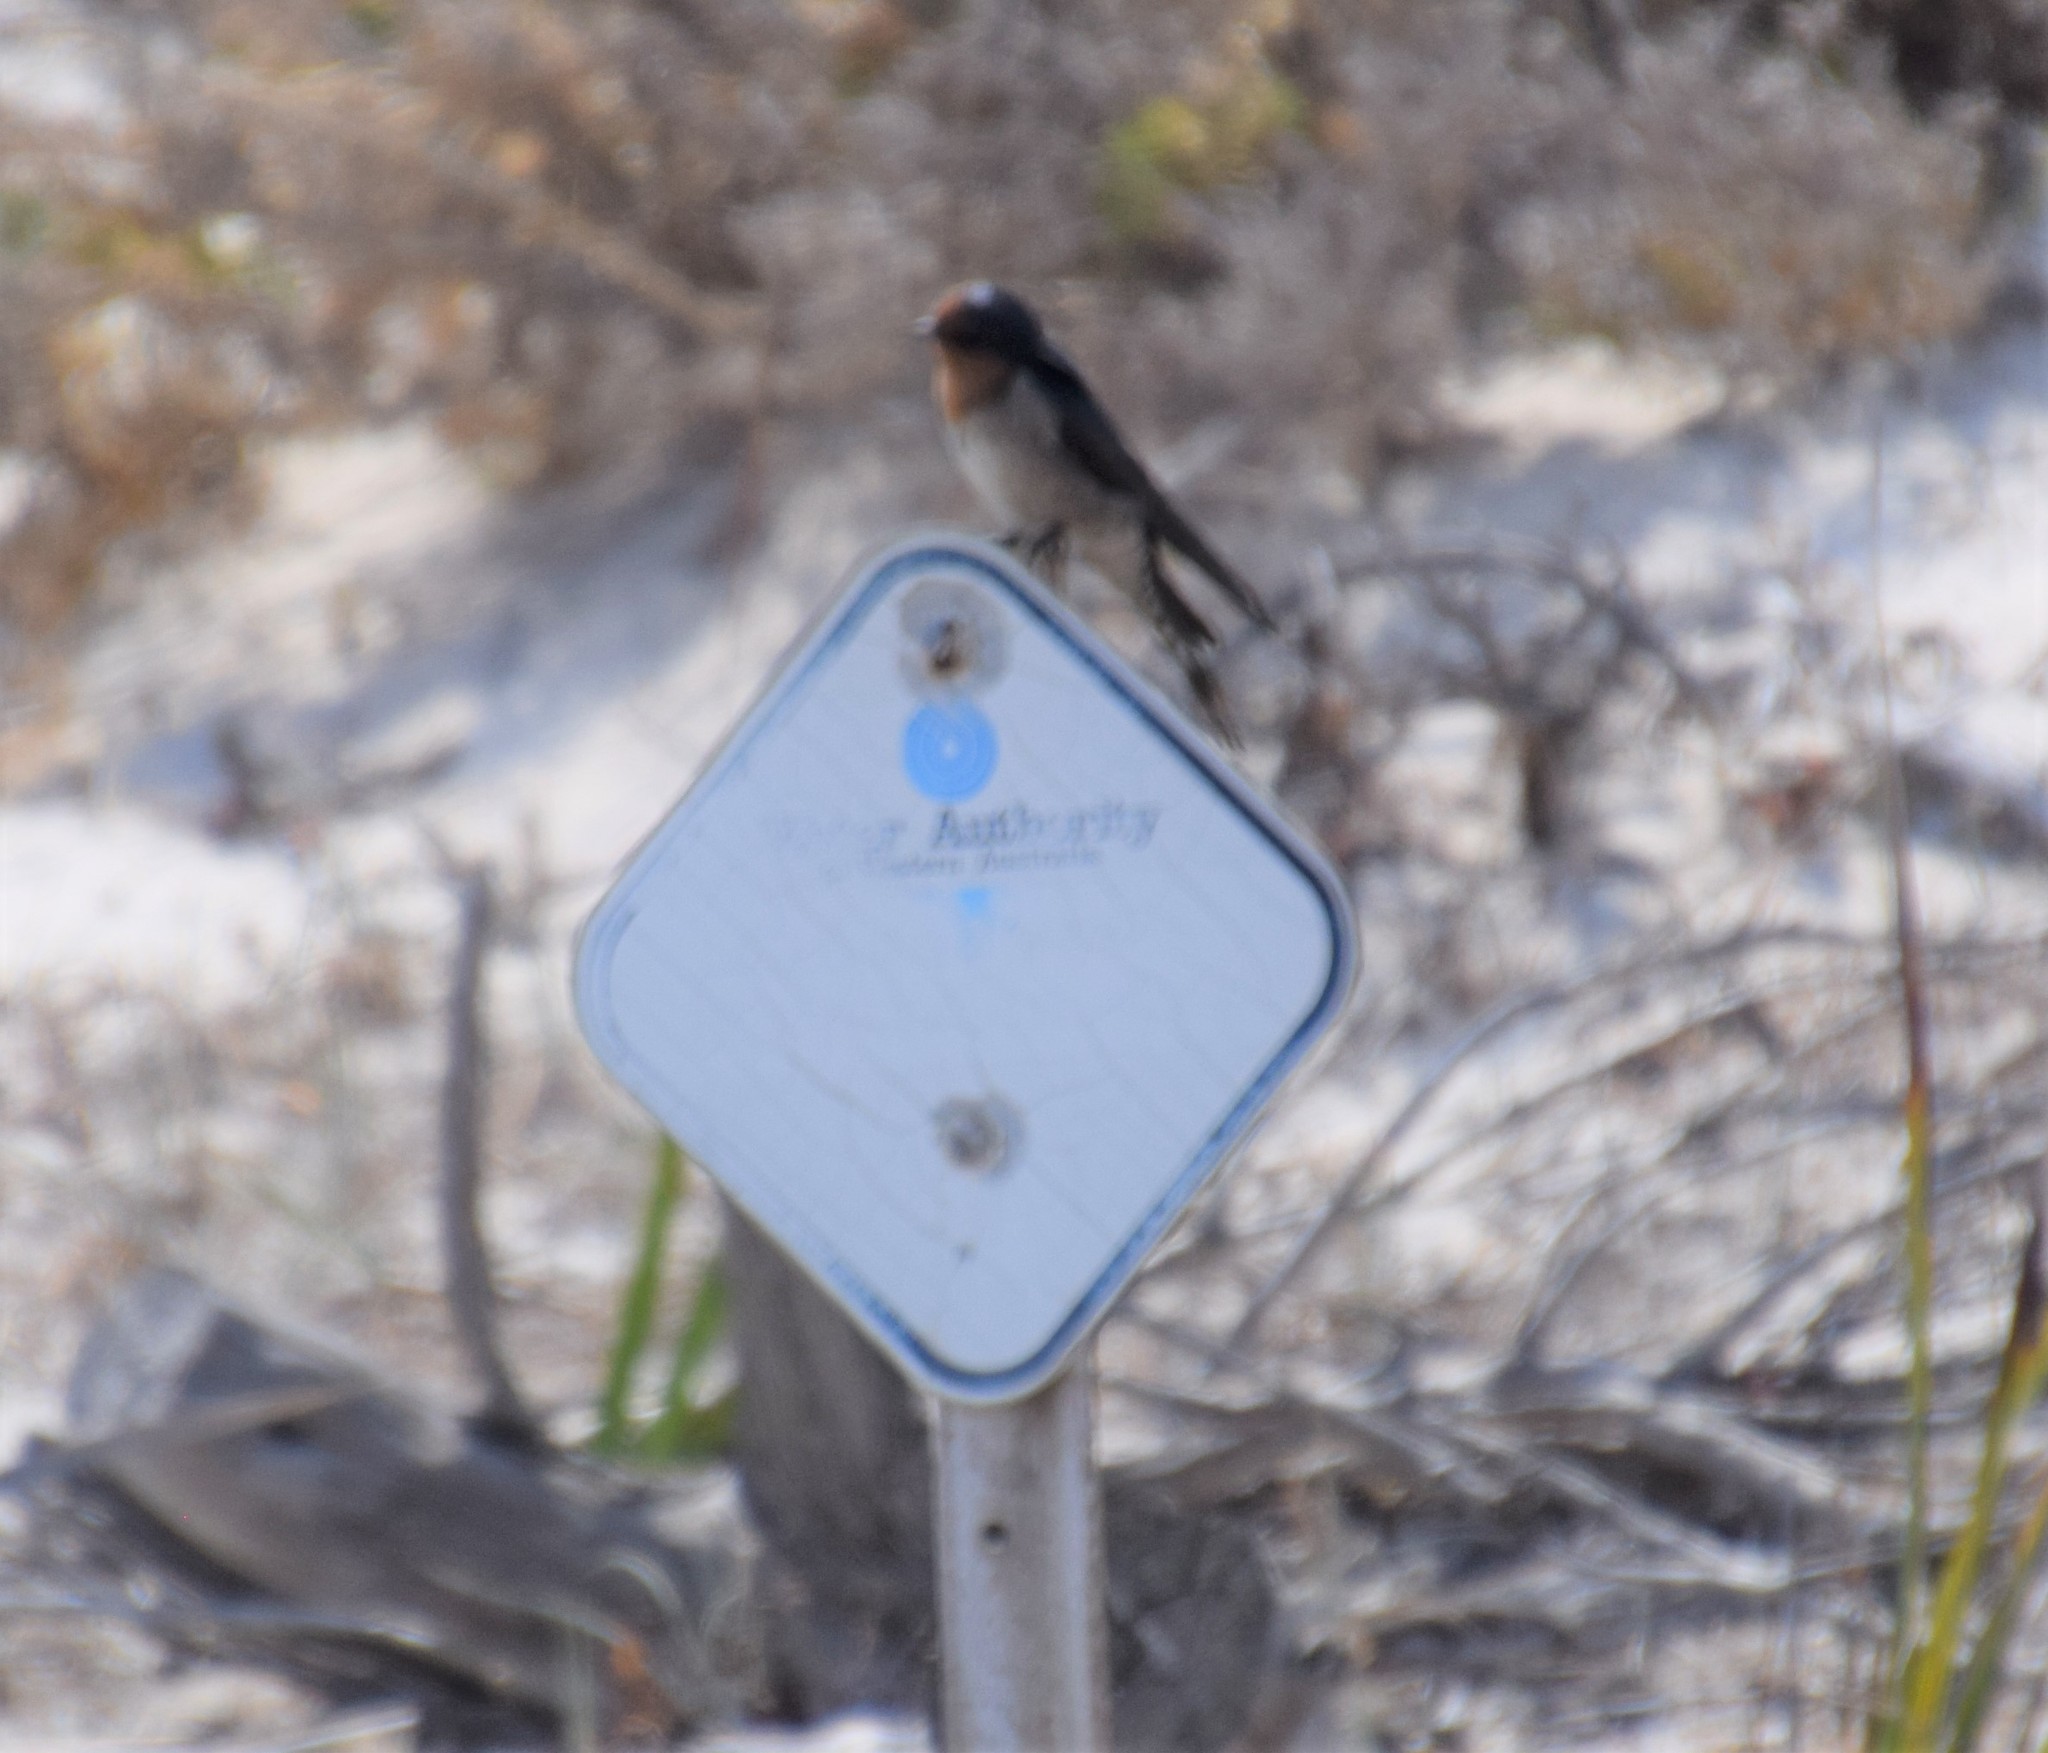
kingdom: Animalia
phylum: Chordata
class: Aves
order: Passeriformes
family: Hirundinidae
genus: Hirundo
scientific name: Hirundo neoxena
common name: Welcome swallow
